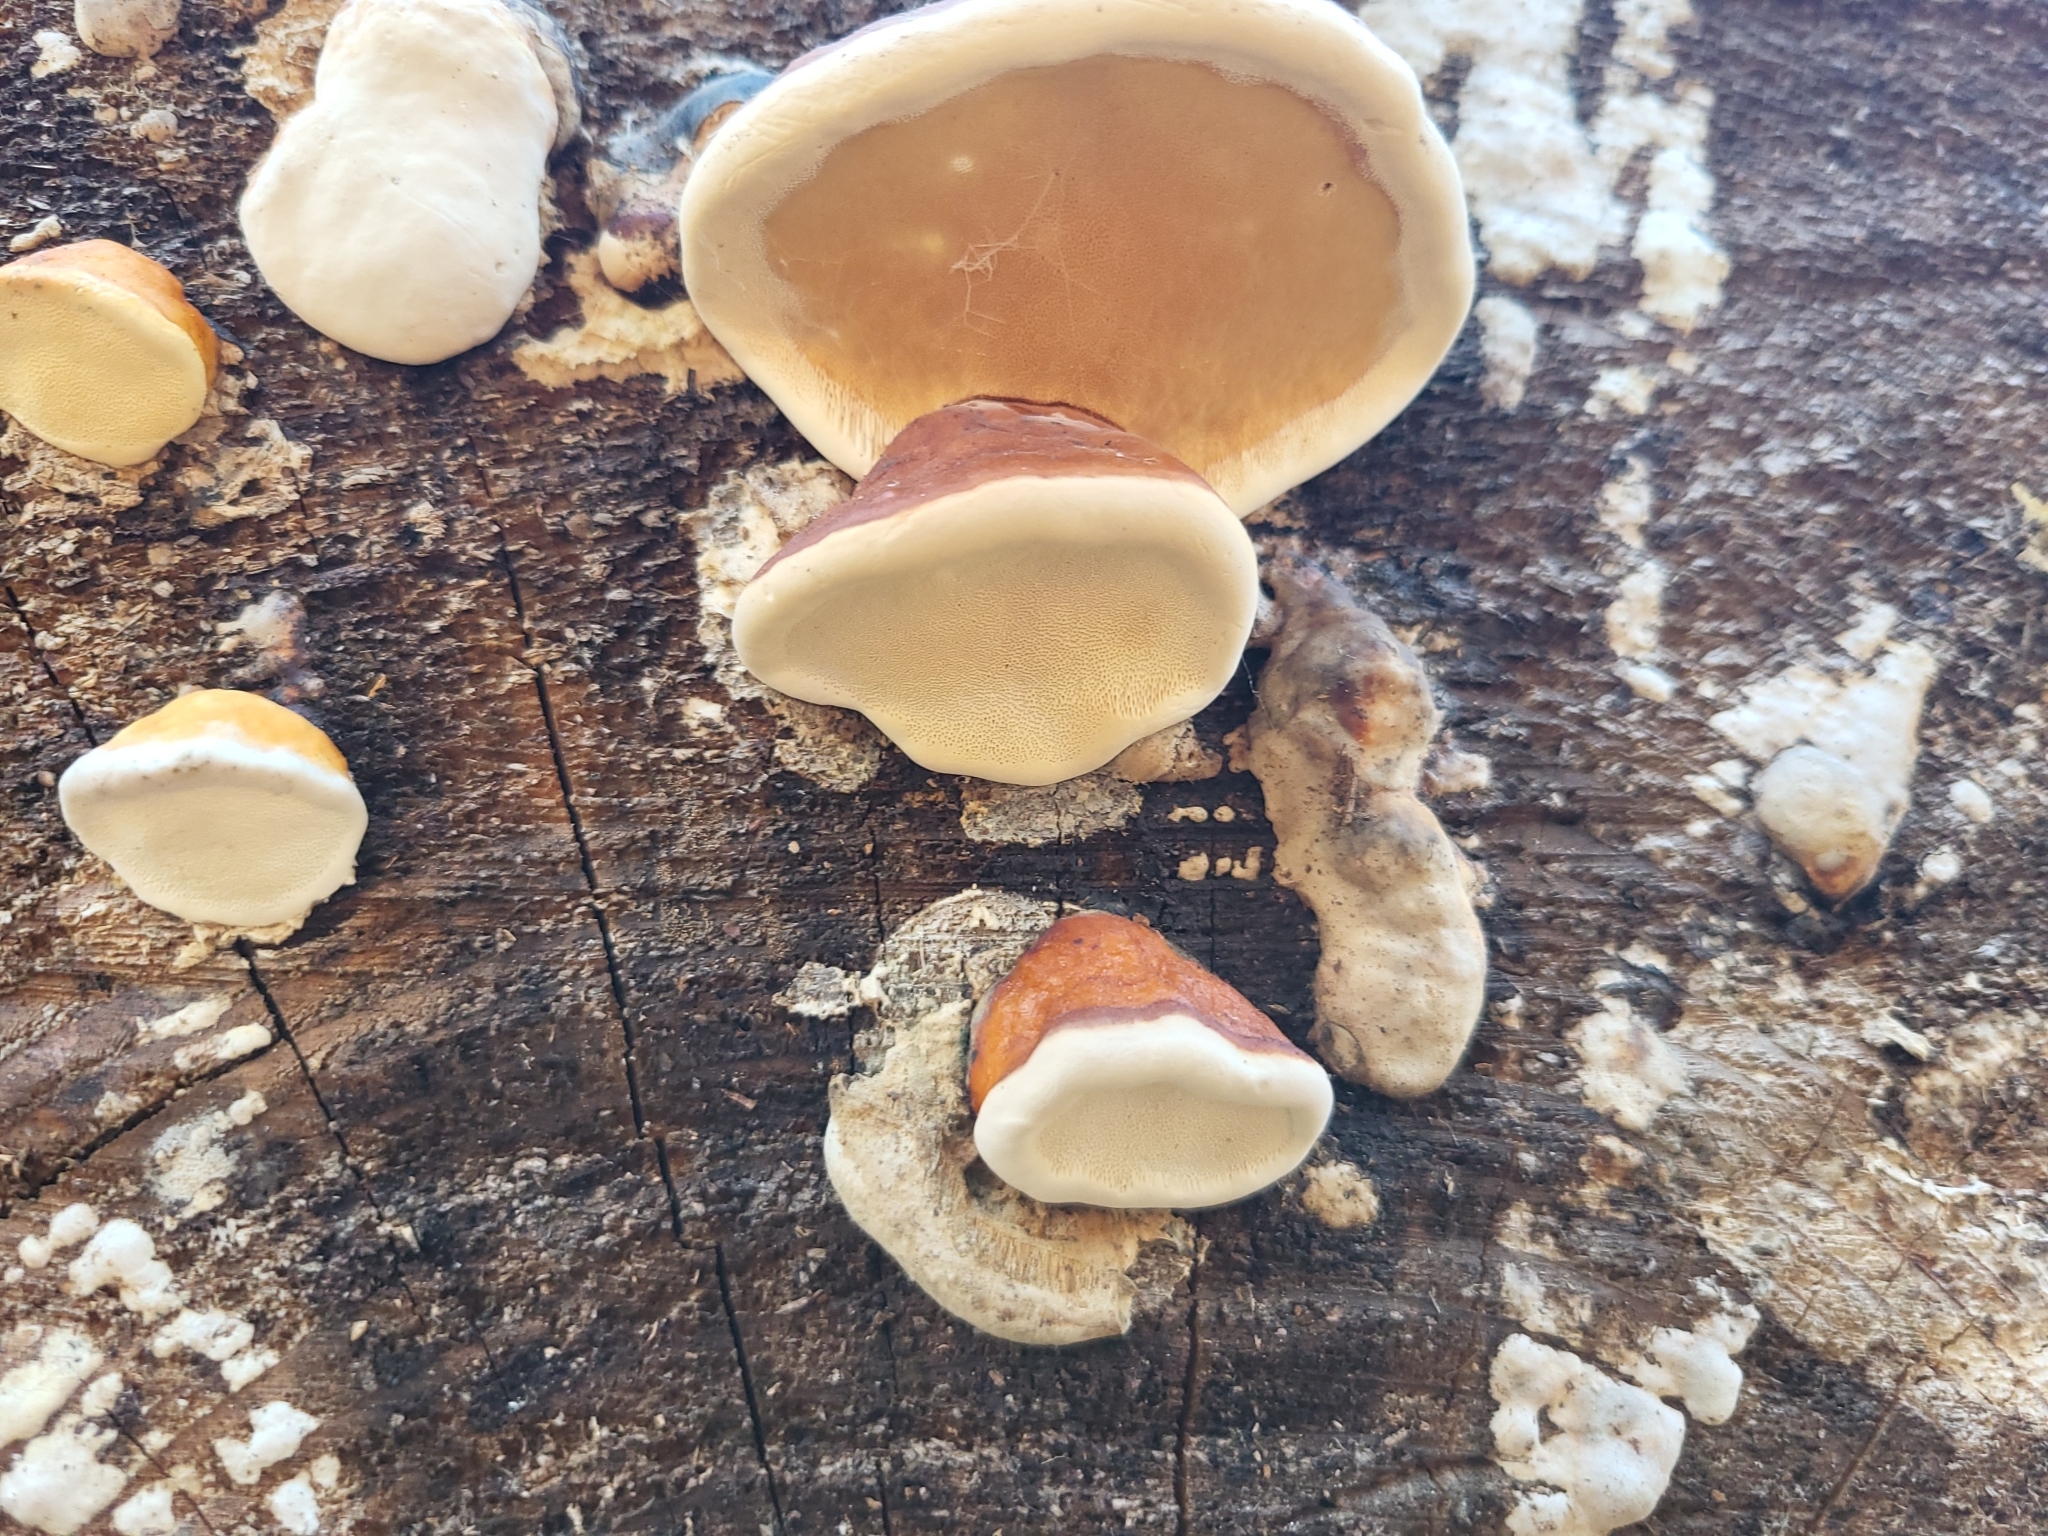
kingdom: Fungi
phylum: Basidiomycota
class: Agaricomycetes
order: Polyporales
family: Fomitopsidaceae
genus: Fomitopsis
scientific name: Fomitopsis mounceae
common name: Northern red belt
